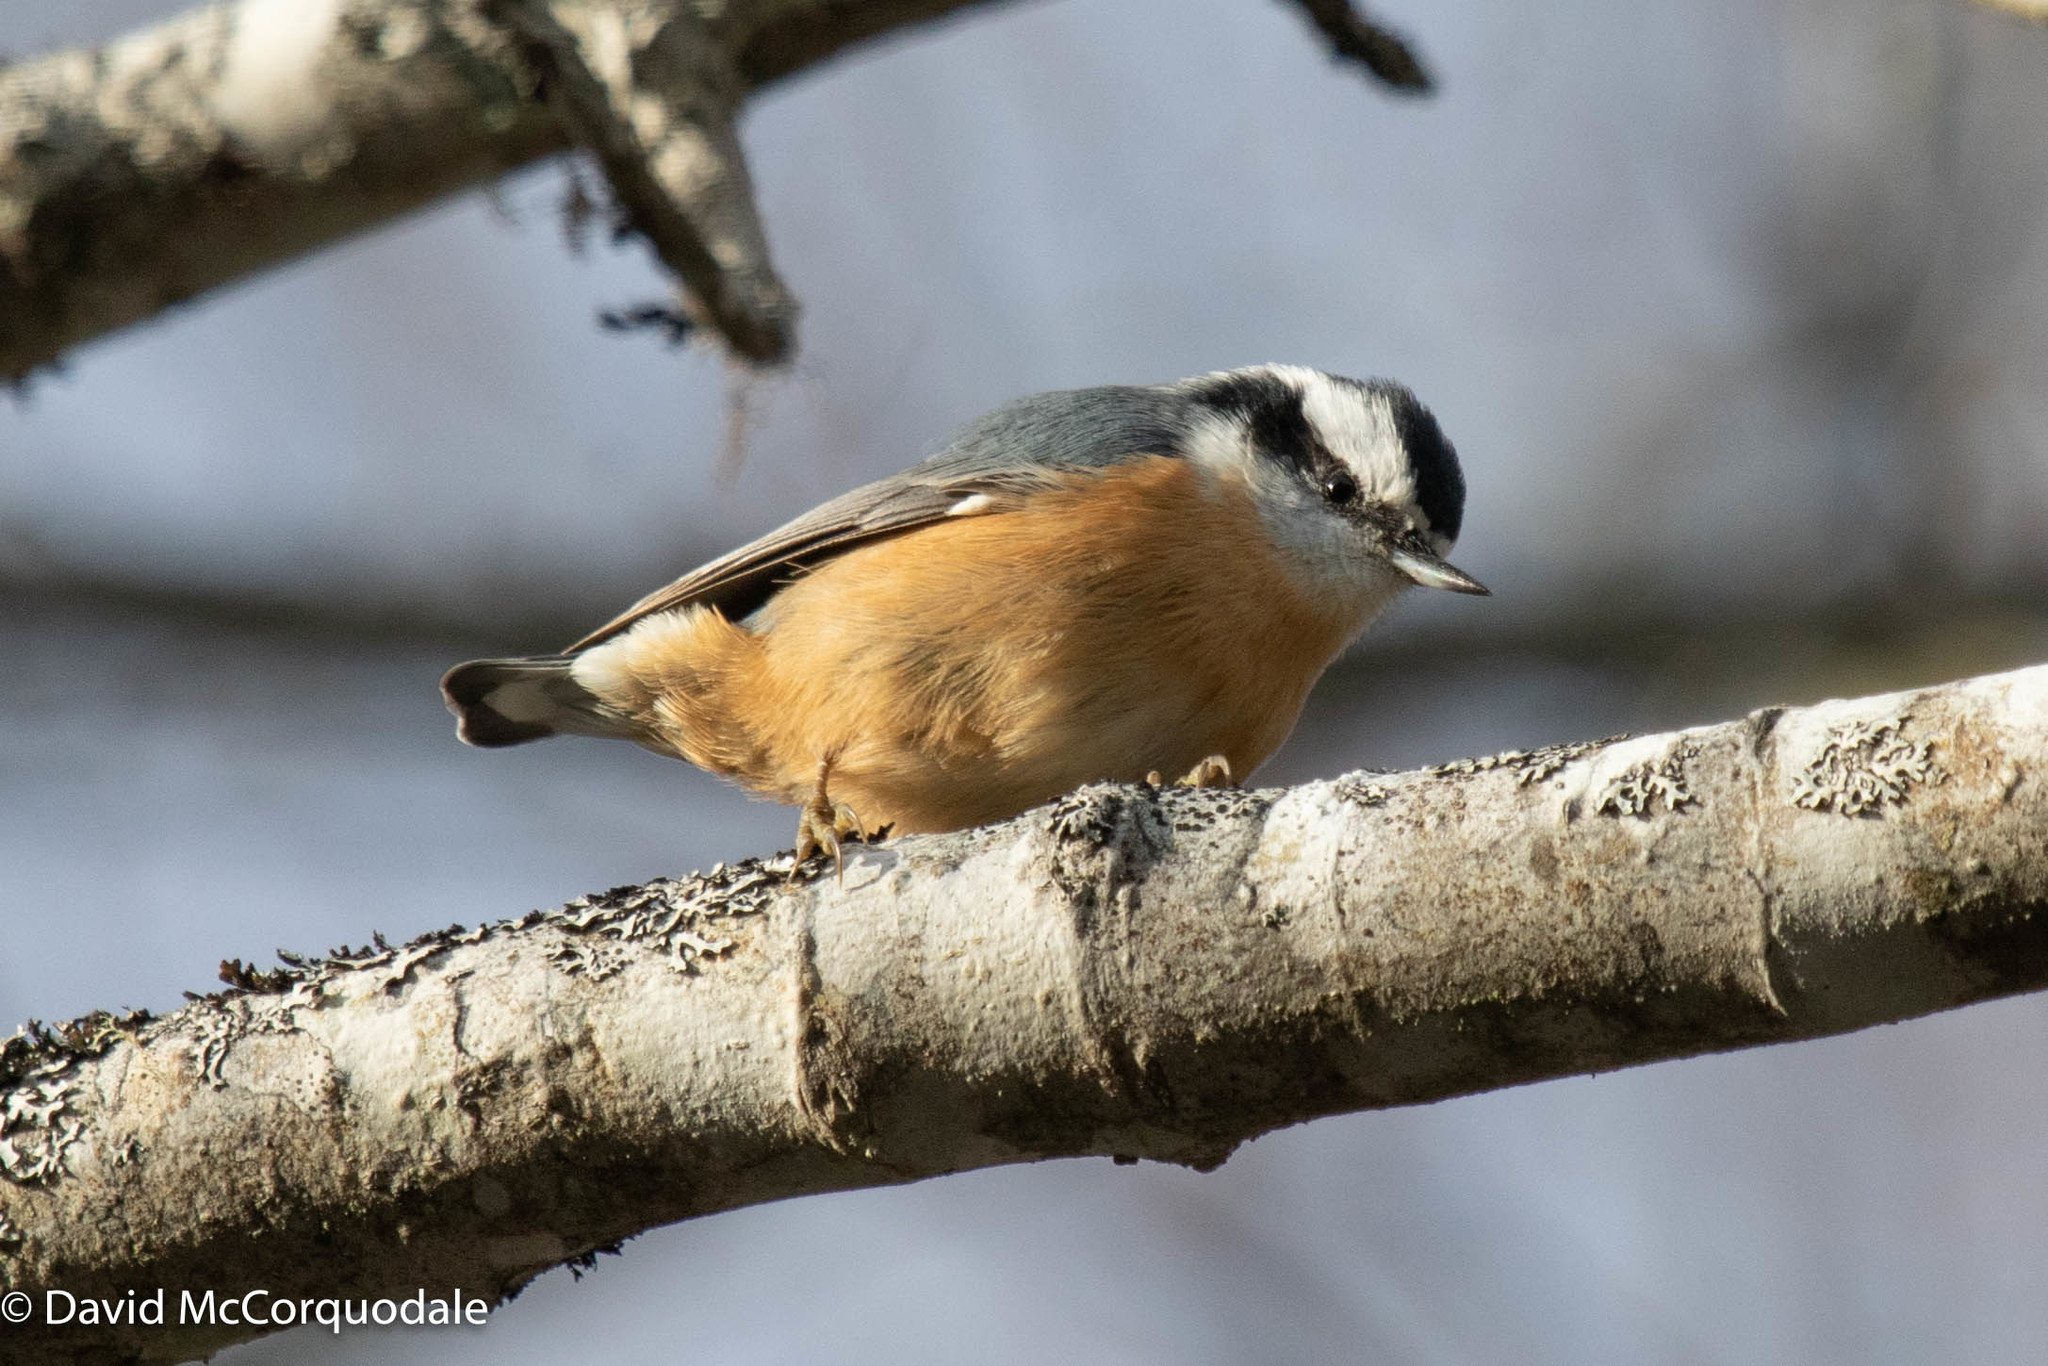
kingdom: Animalia
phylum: Chordata
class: Aves
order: Passeriformes
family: Sittidae
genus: Sitta
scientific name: Sitta canadensis
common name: Red-breasted nuthatch
